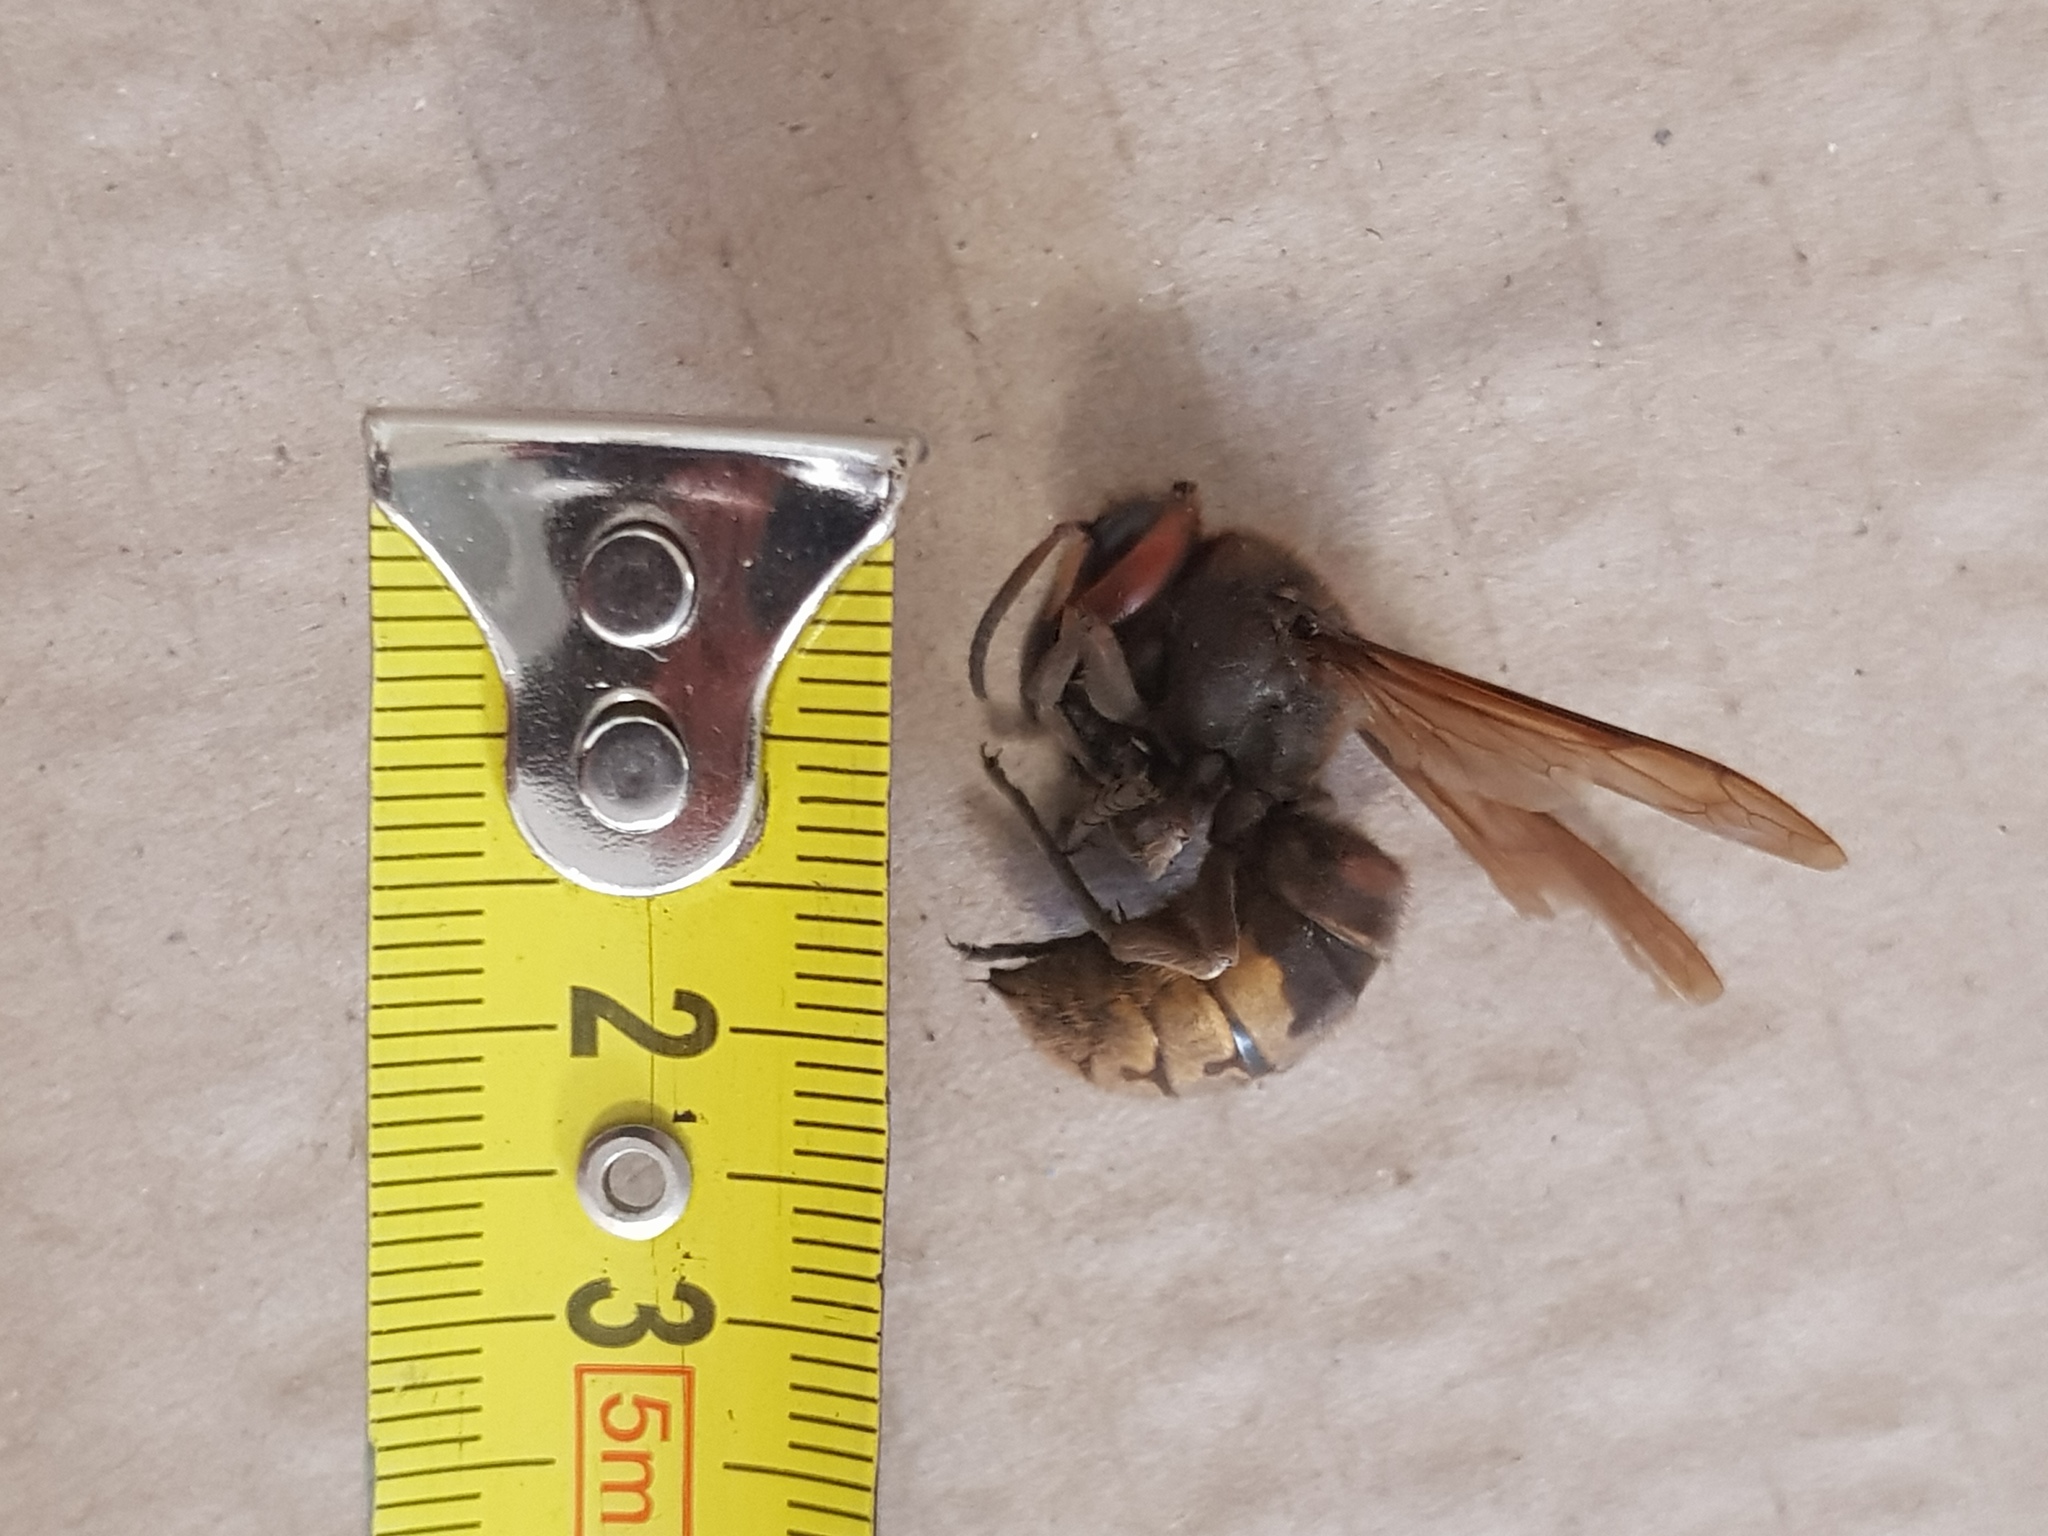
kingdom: Animalia
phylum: Arthropoda
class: Insecta
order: Hymenoptera
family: Vespidae
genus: Vespa
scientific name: Vespa crabro
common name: Hornet
